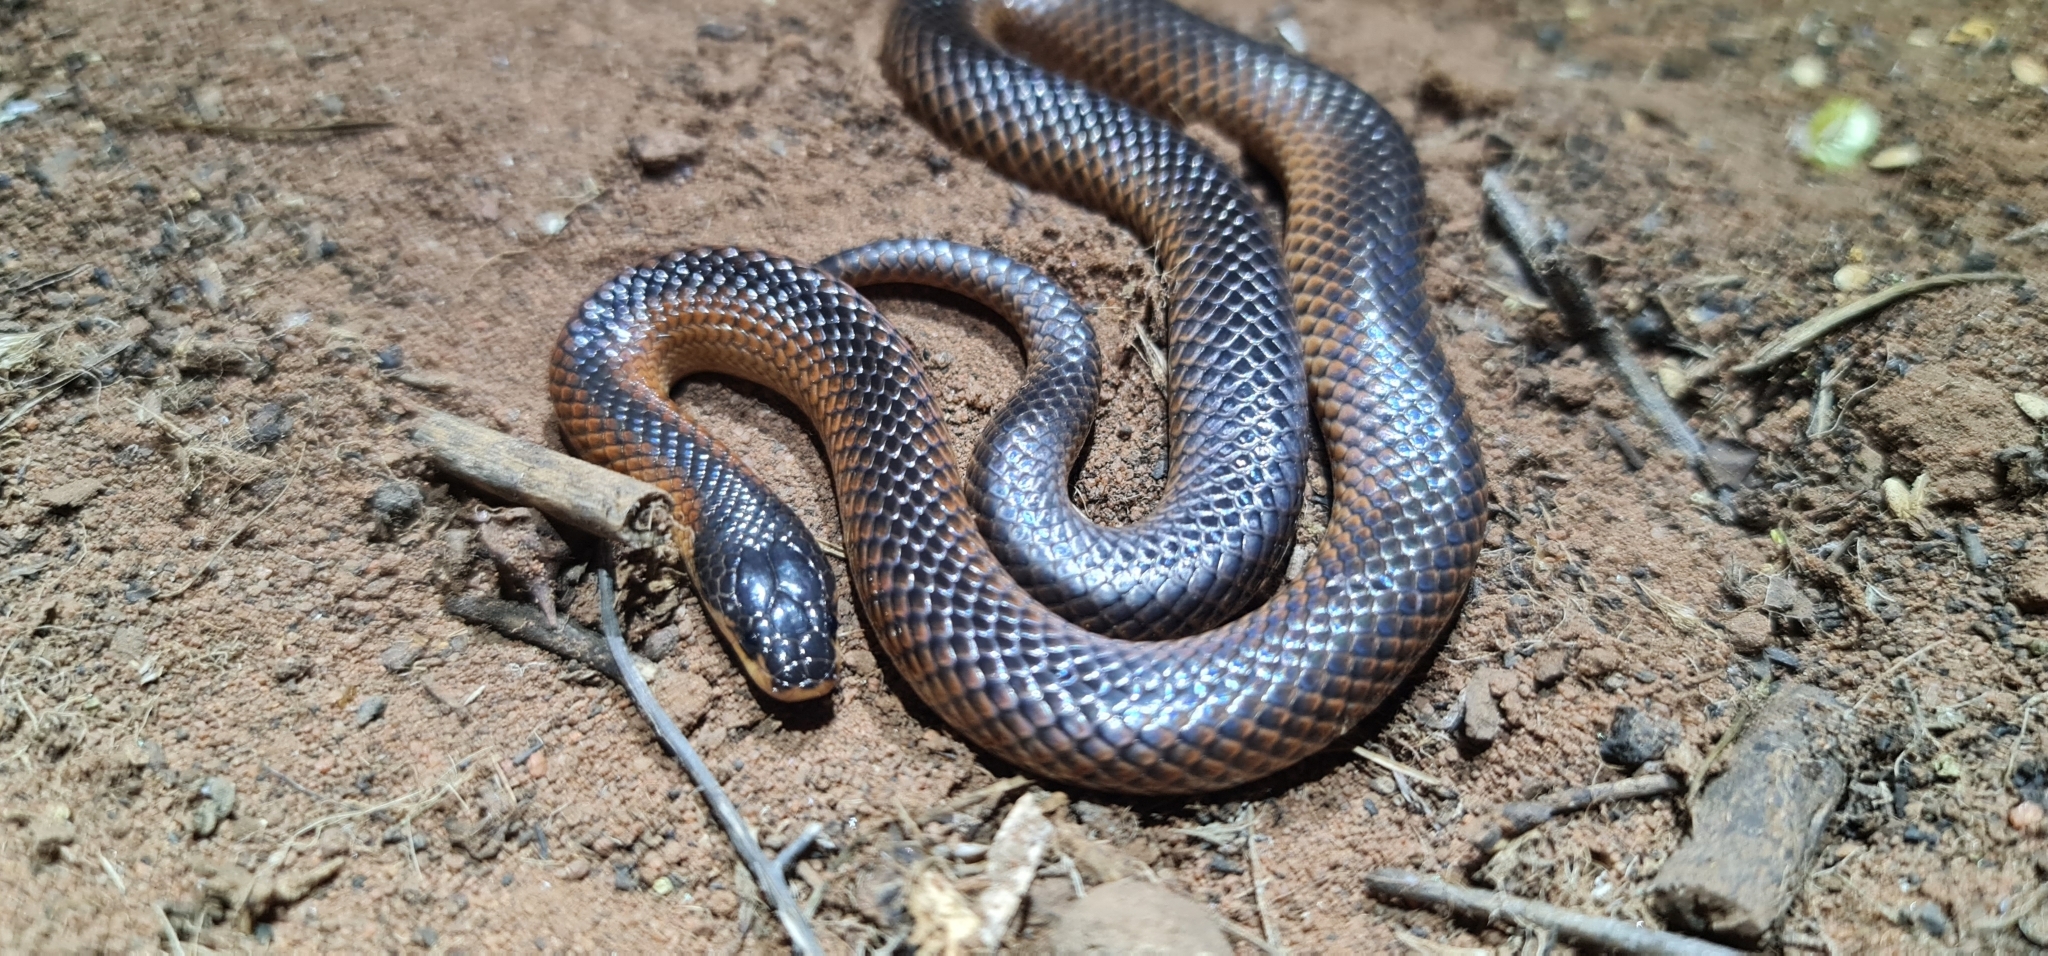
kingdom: Animalia
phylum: Chordata
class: Squamata
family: Elapidae
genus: Suta
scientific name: Suta nigriceps
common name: Mallee black-backed snake
